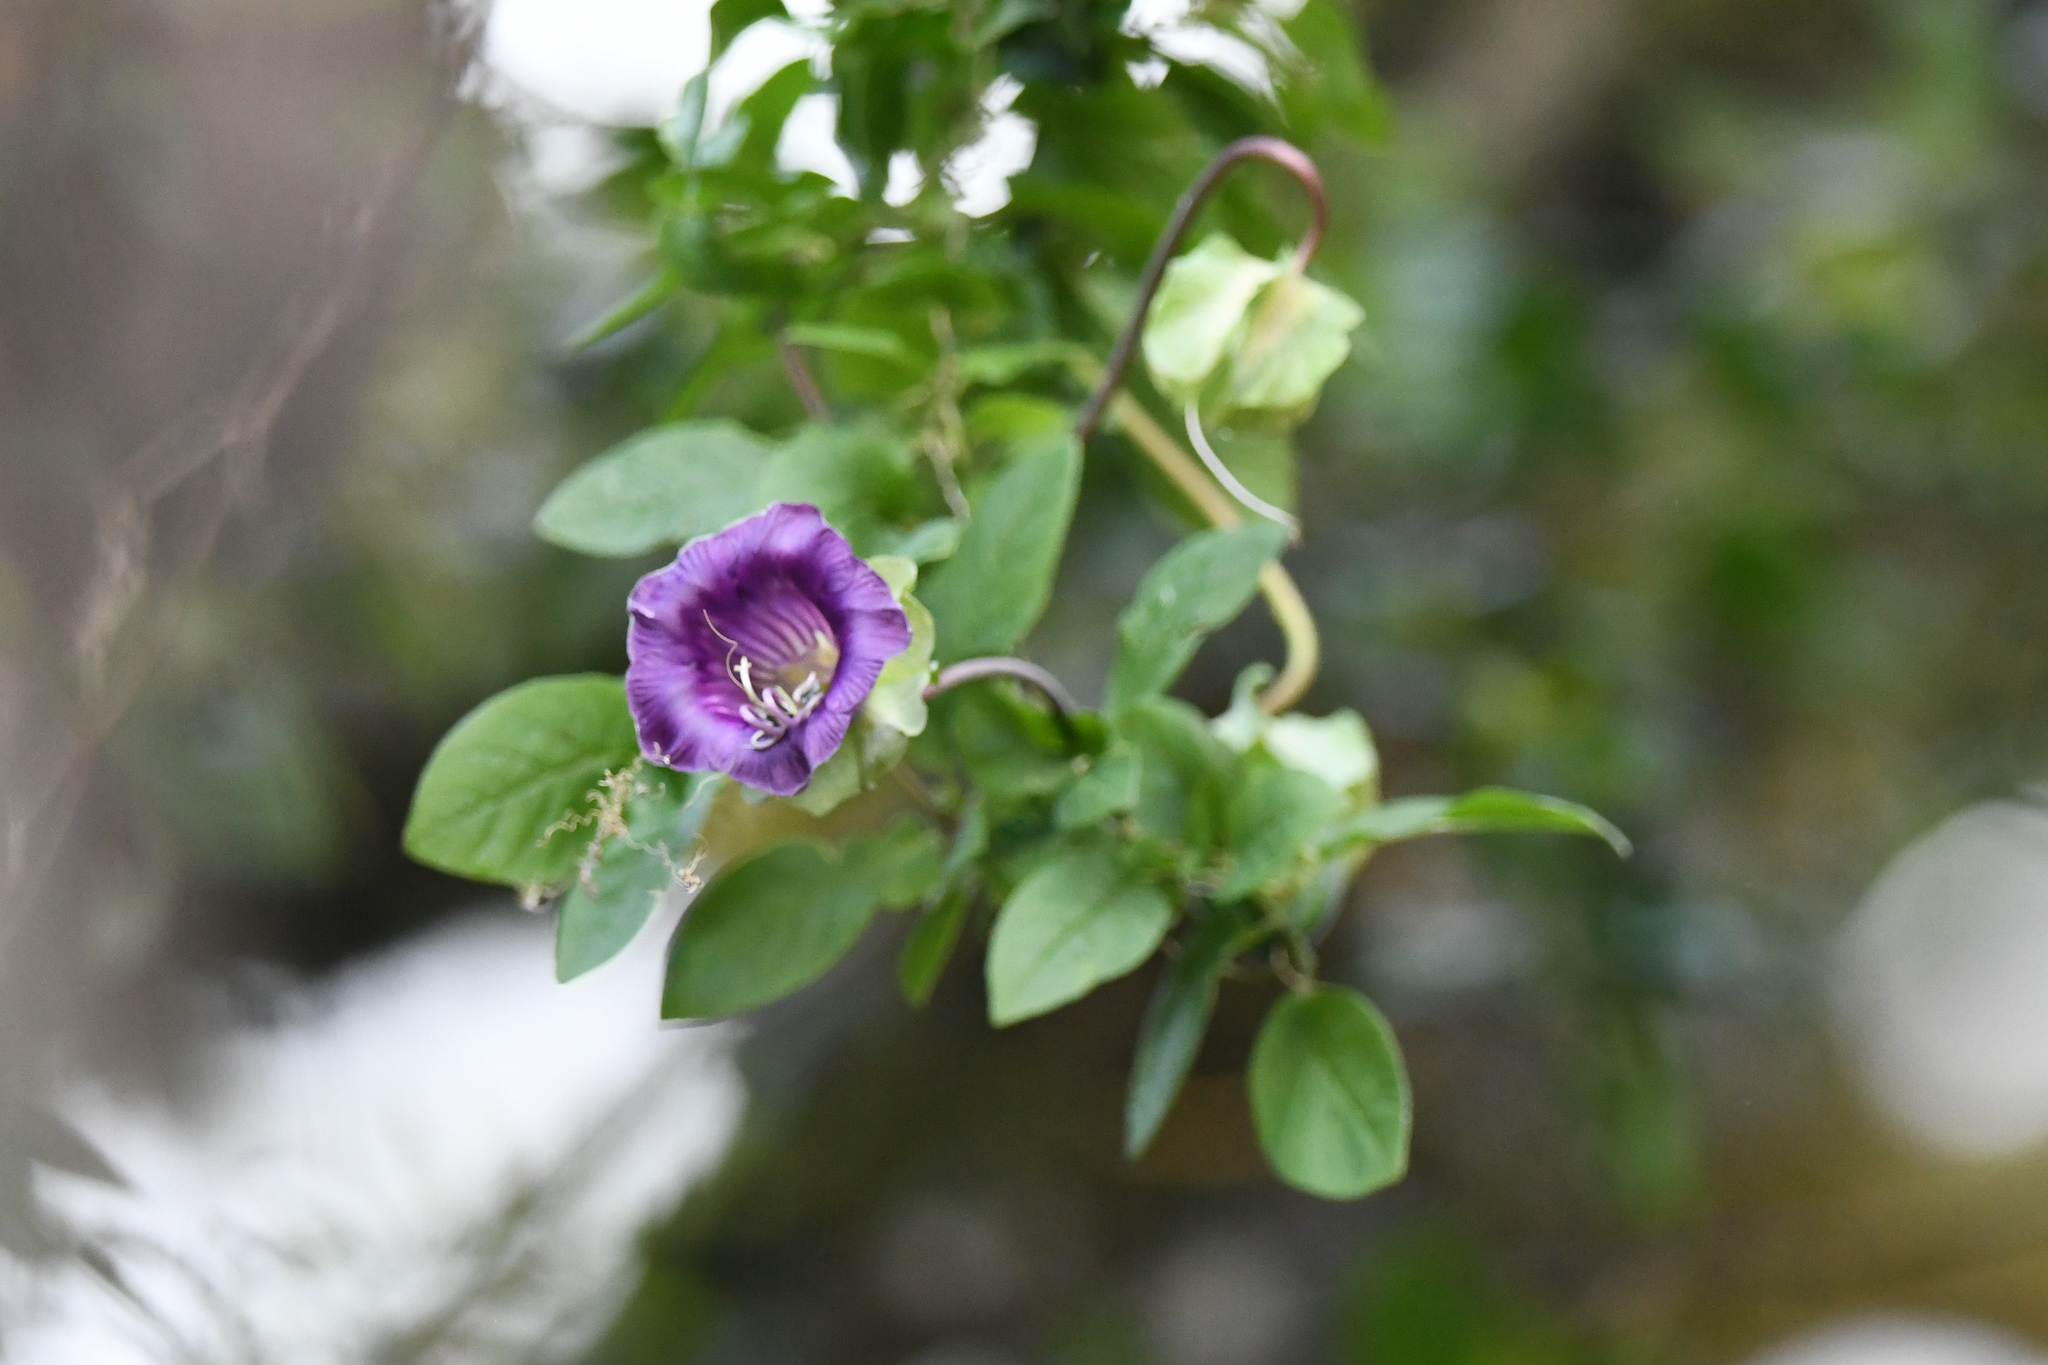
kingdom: Plantae
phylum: Tracheophyta
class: Magnoliopsida
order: Ericales
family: Polemoniaceae
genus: Cobaea
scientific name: Cobaea scandens
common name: Cup-and-saucer-vine
